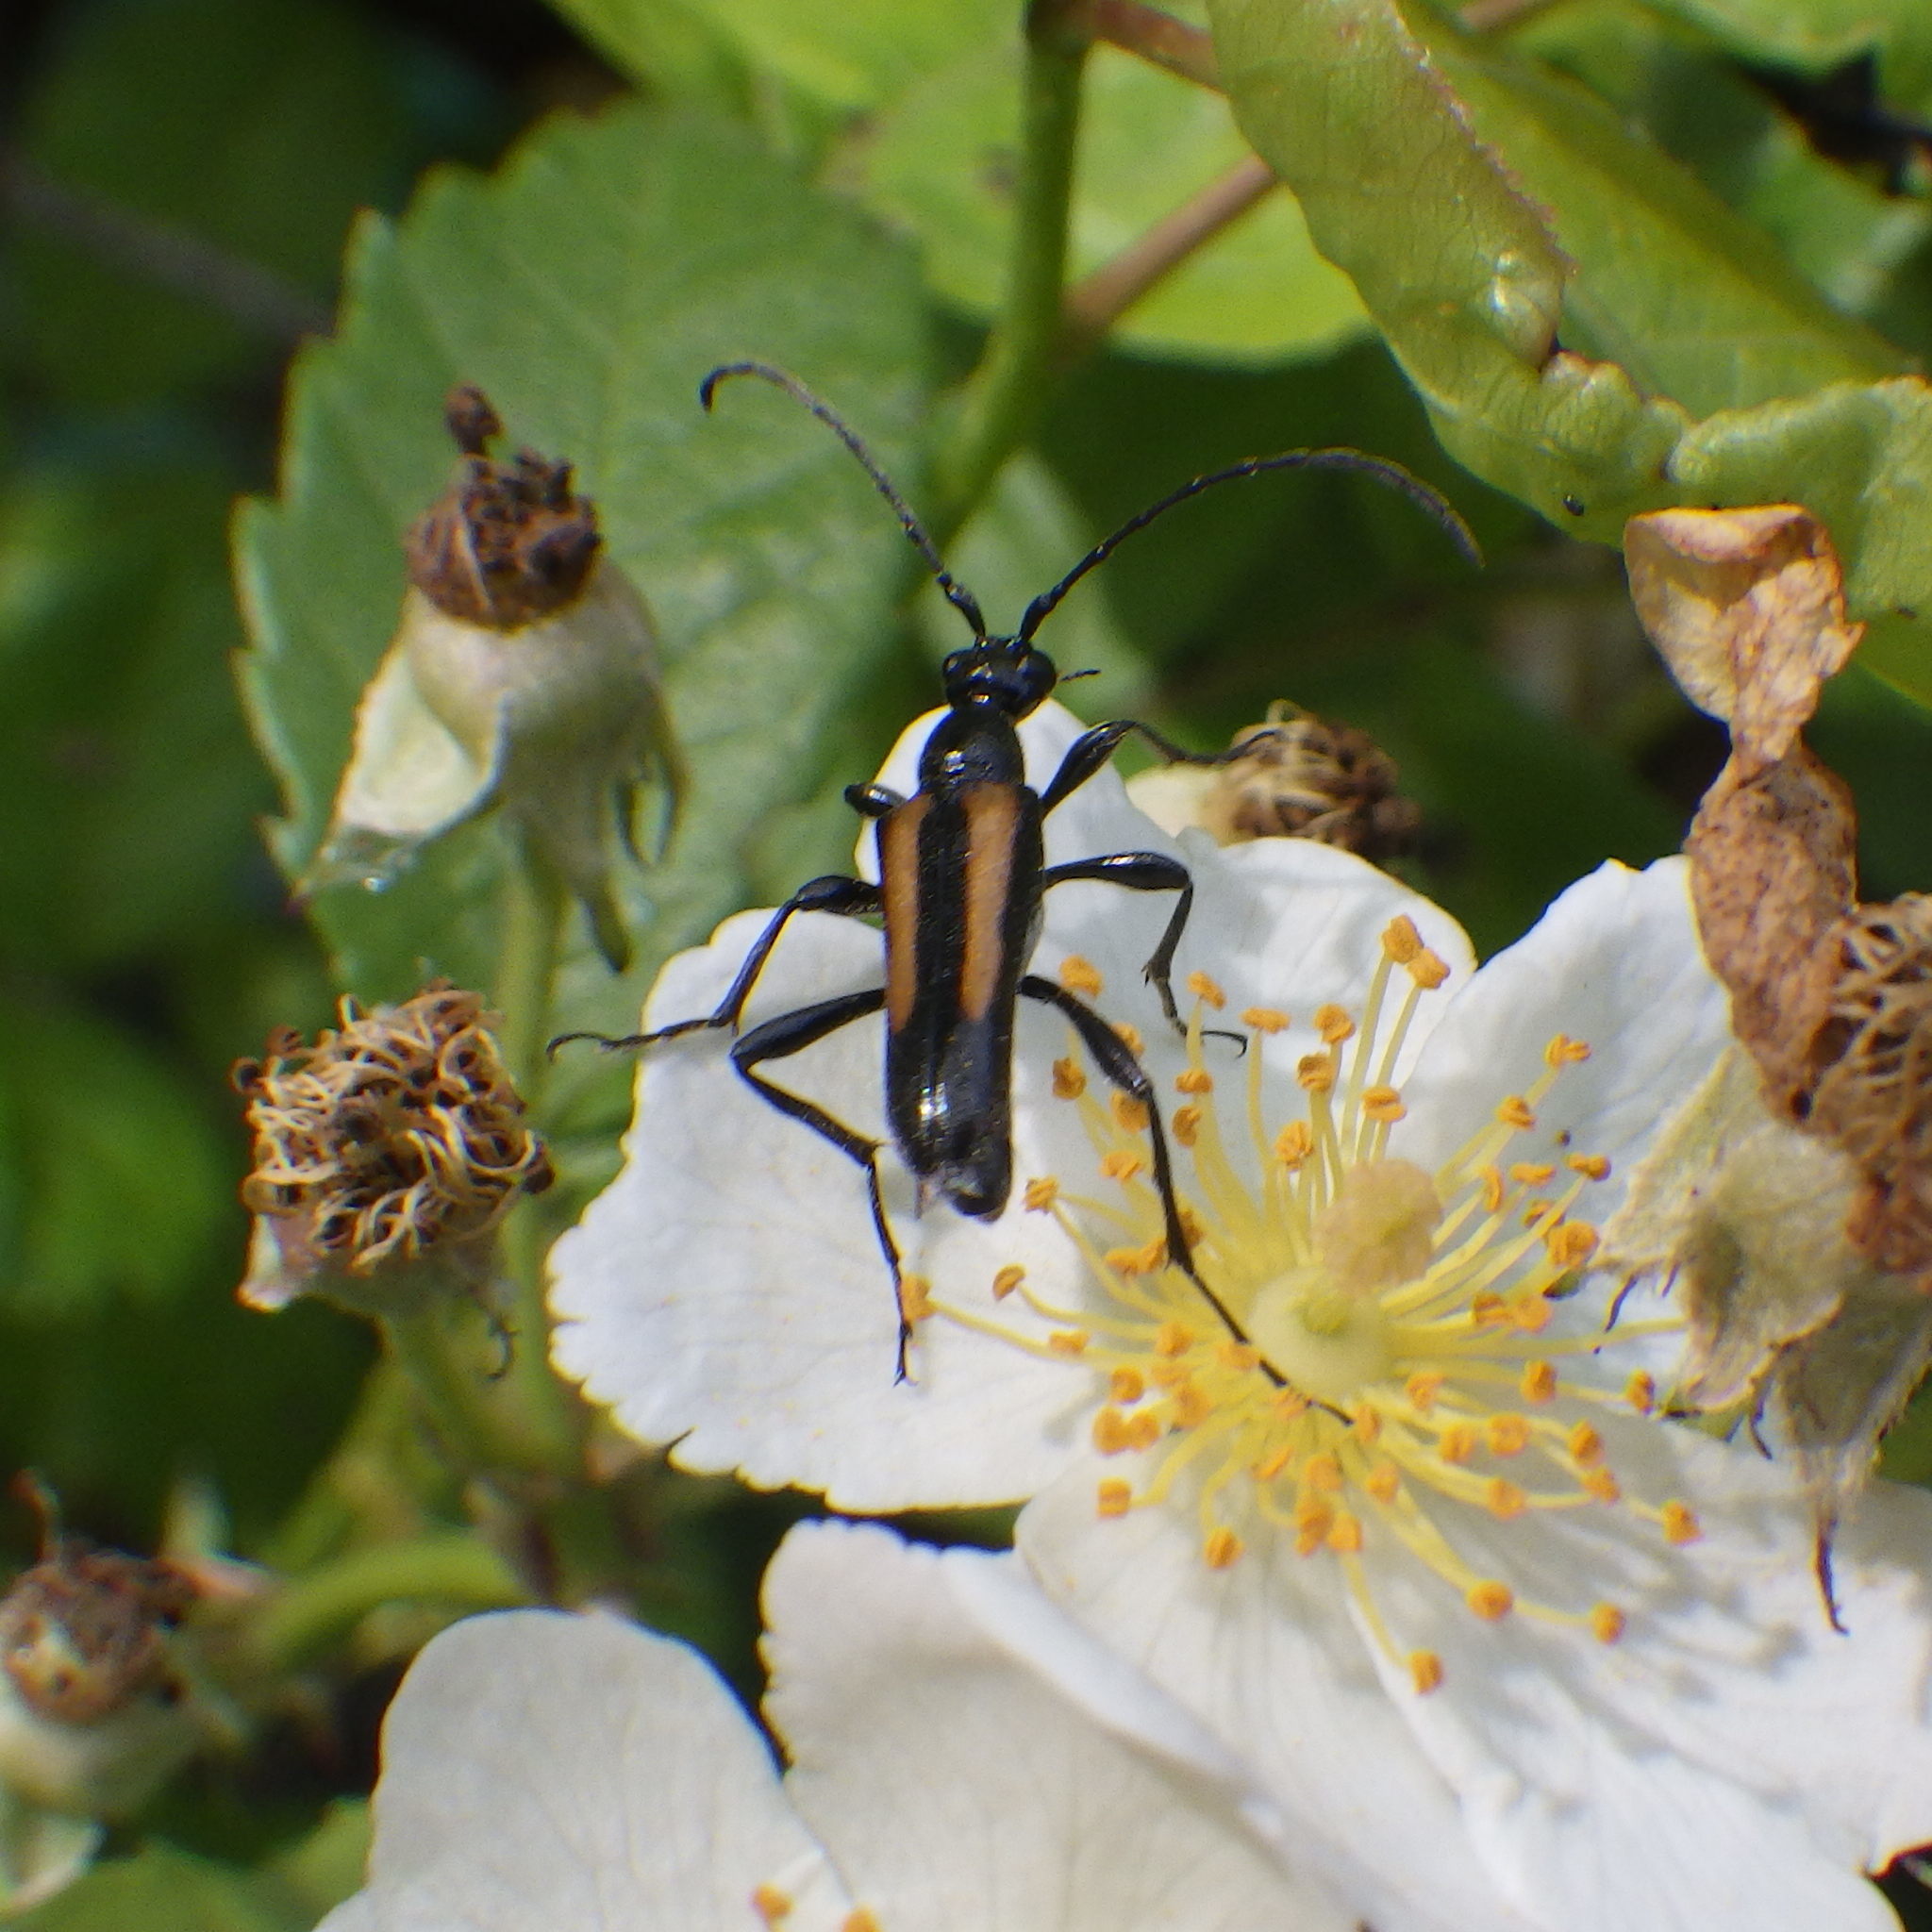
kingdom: Animalia
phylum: Arthropoda
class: Insecta
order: Coleoptera
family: Cerambycidae
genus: Strangalepta
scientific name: Strangalepta abbreviata
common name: Strangalepta flower longhorn beetle
